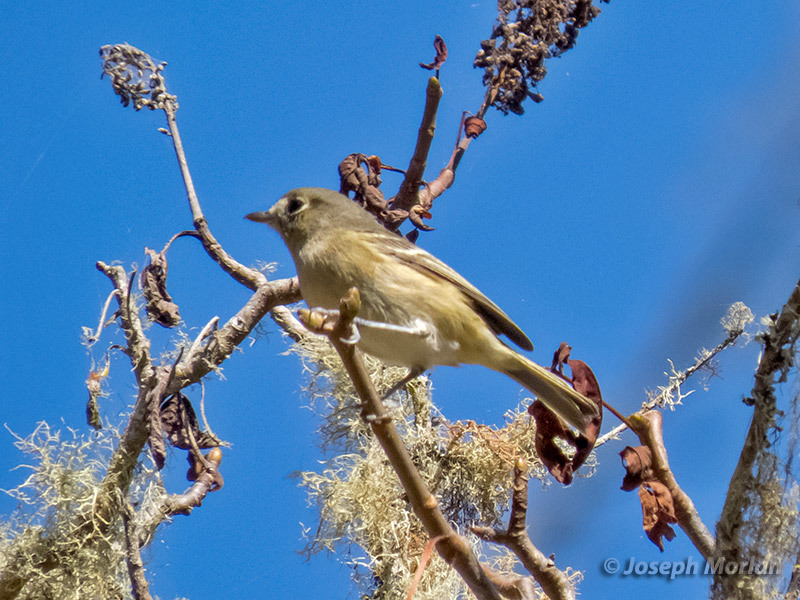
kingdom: Animalia
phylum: Chordata
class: Aves
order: Passeriformes
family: Vireonidae
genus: Vireo
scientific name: Vireo huttoni
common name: Hutton's vireo
